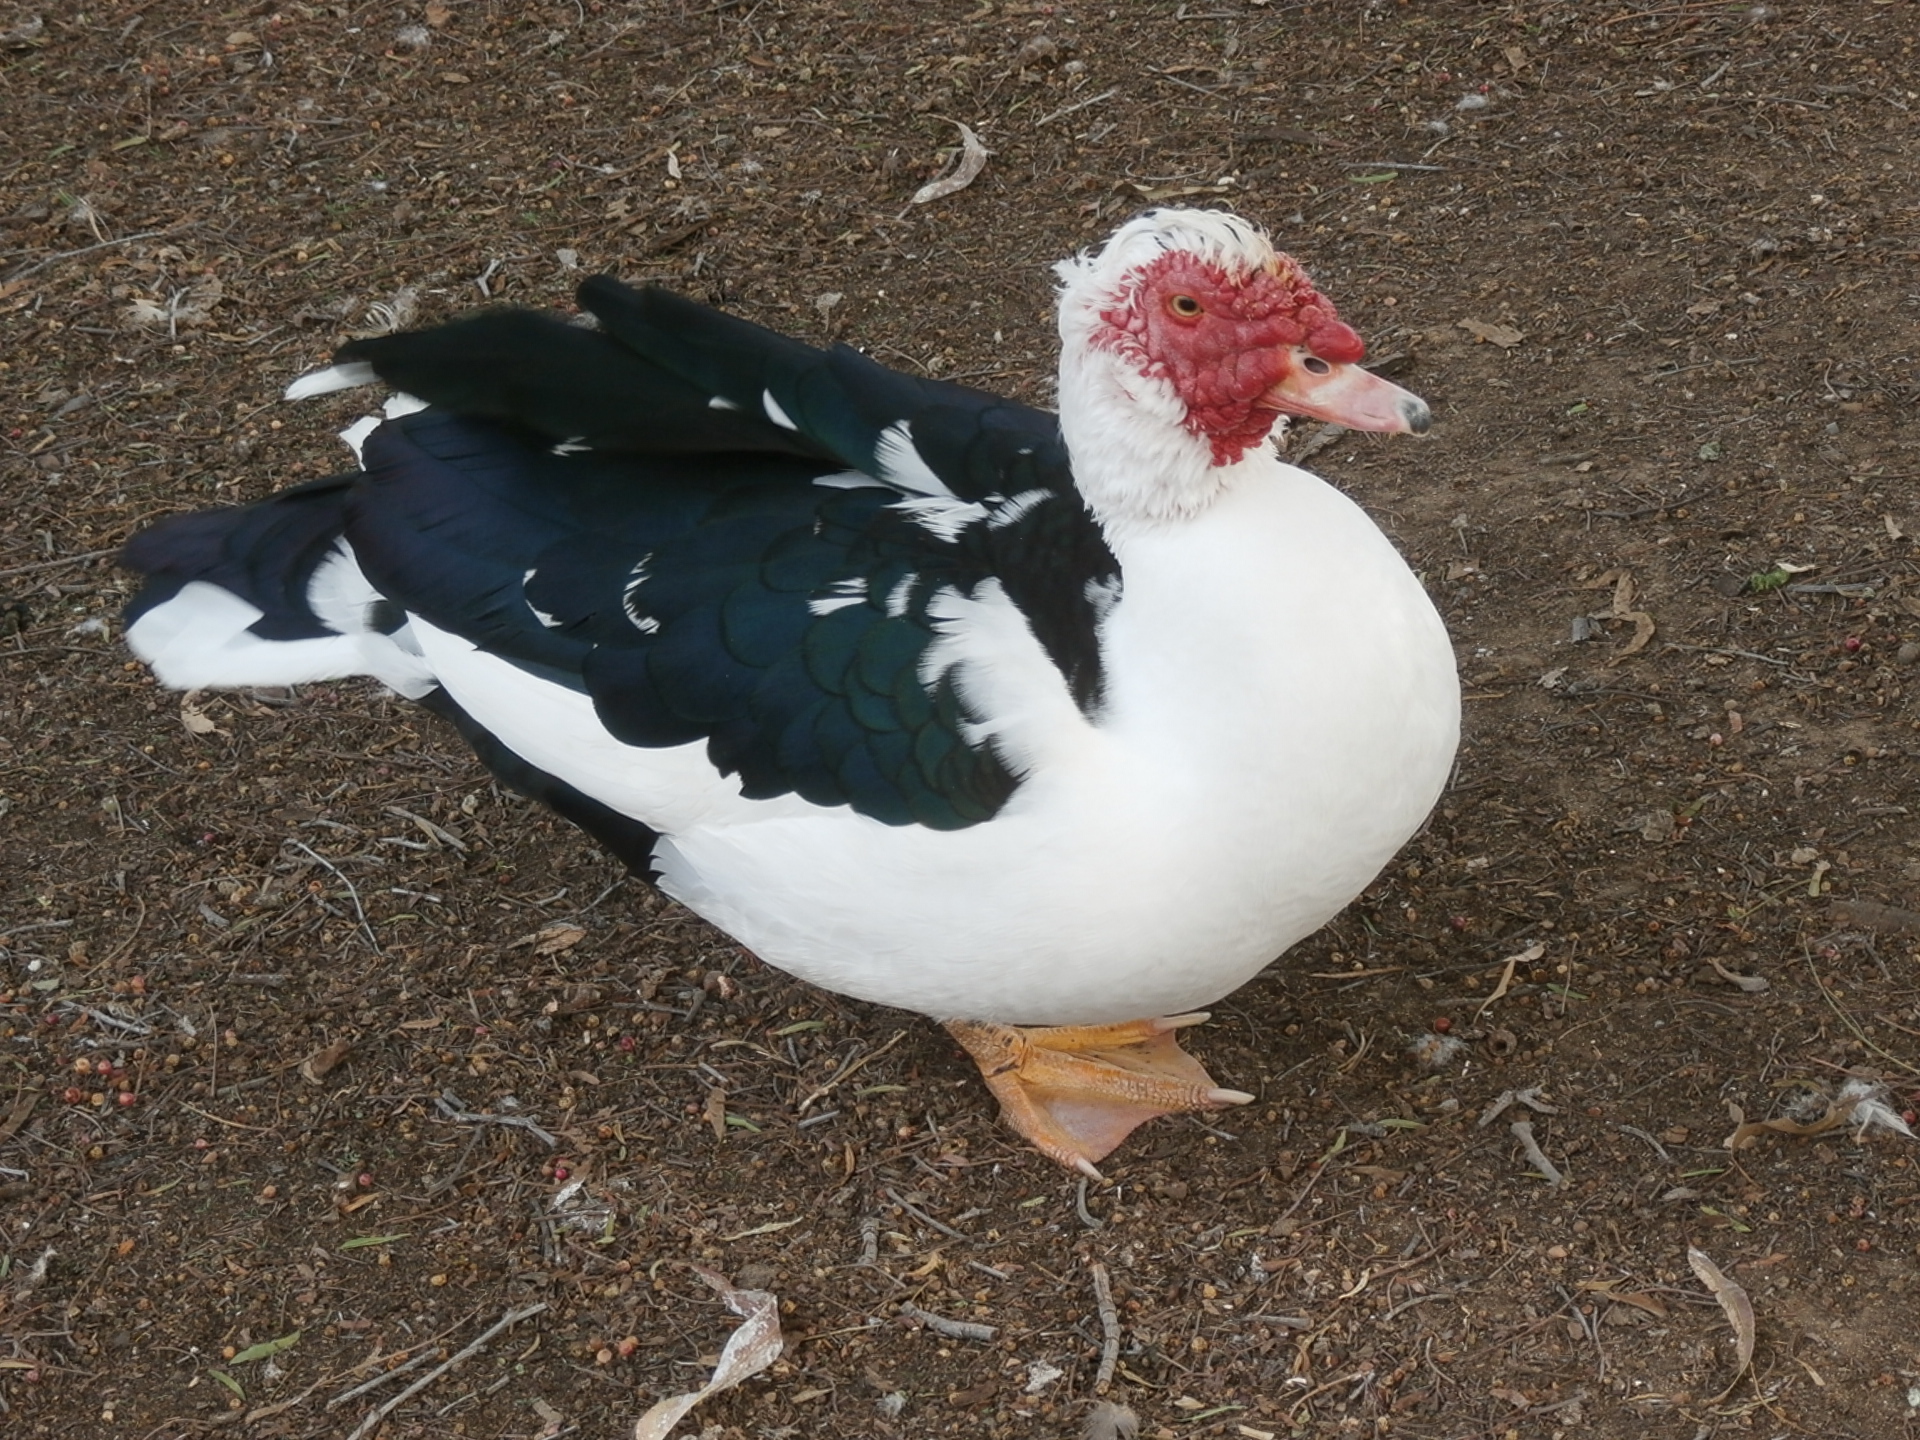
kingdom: Animalia
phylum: Chordata
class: Aves
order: Anseriformes
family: Anatidae
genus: Cairina
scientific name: Cairina moschata
